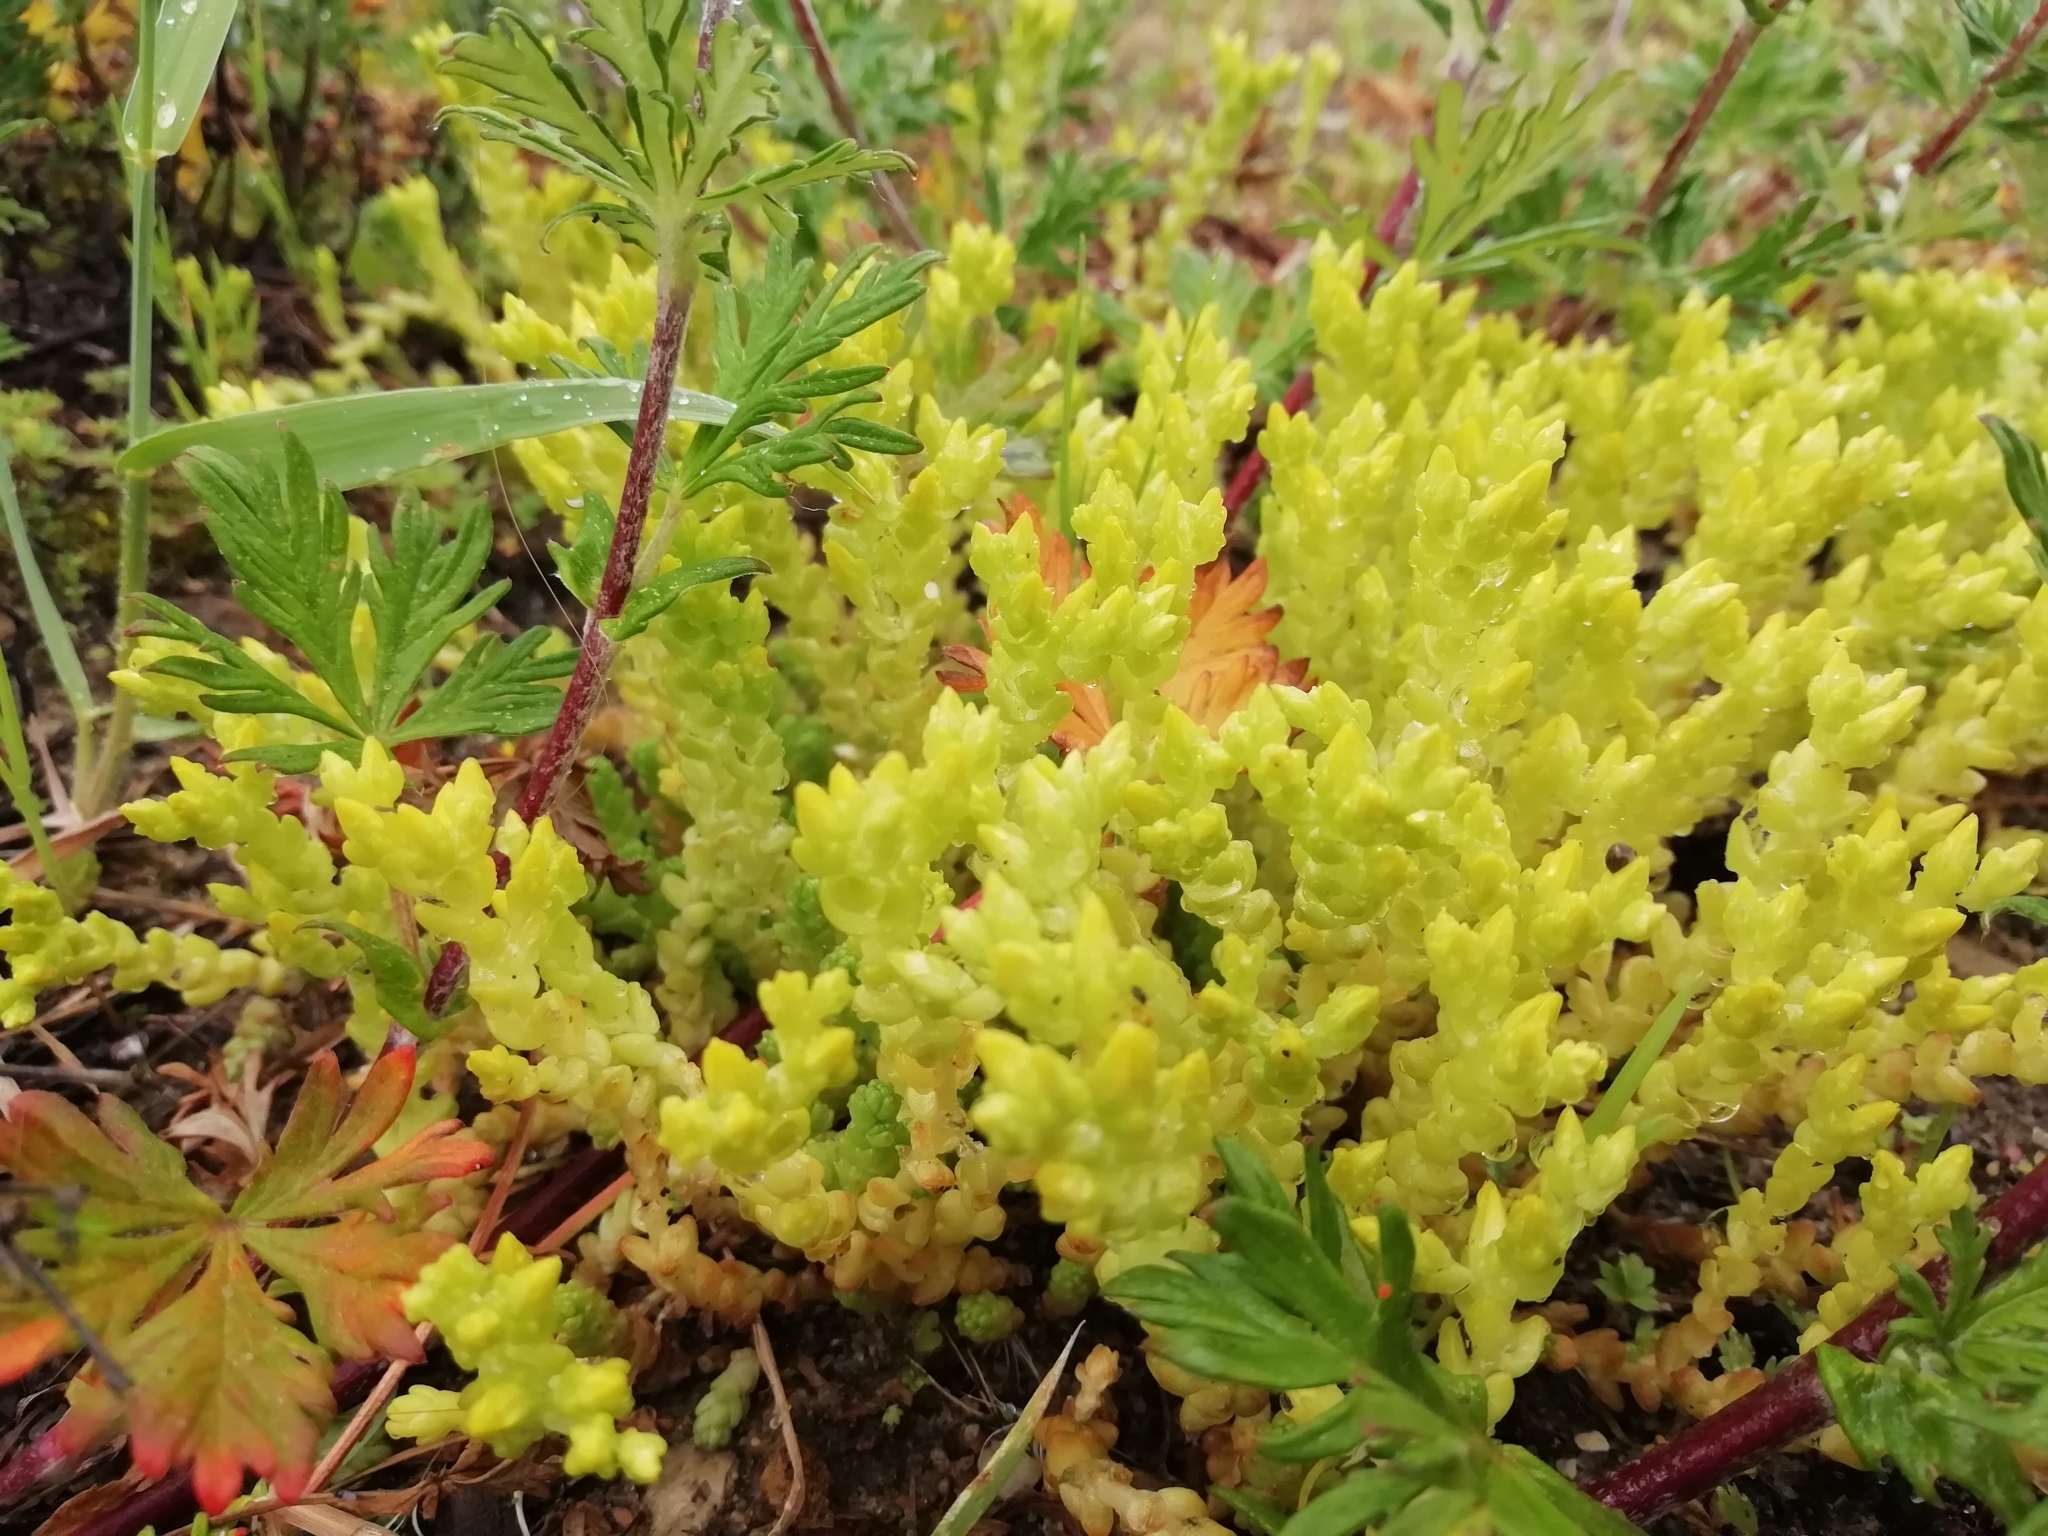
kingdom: Plantae
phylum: Tracheophyta
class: Magnoliopsida
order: Saxifragales
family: Crassulaceae
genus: Sedum
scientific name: Sedum acre
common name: Biting stonecrop
